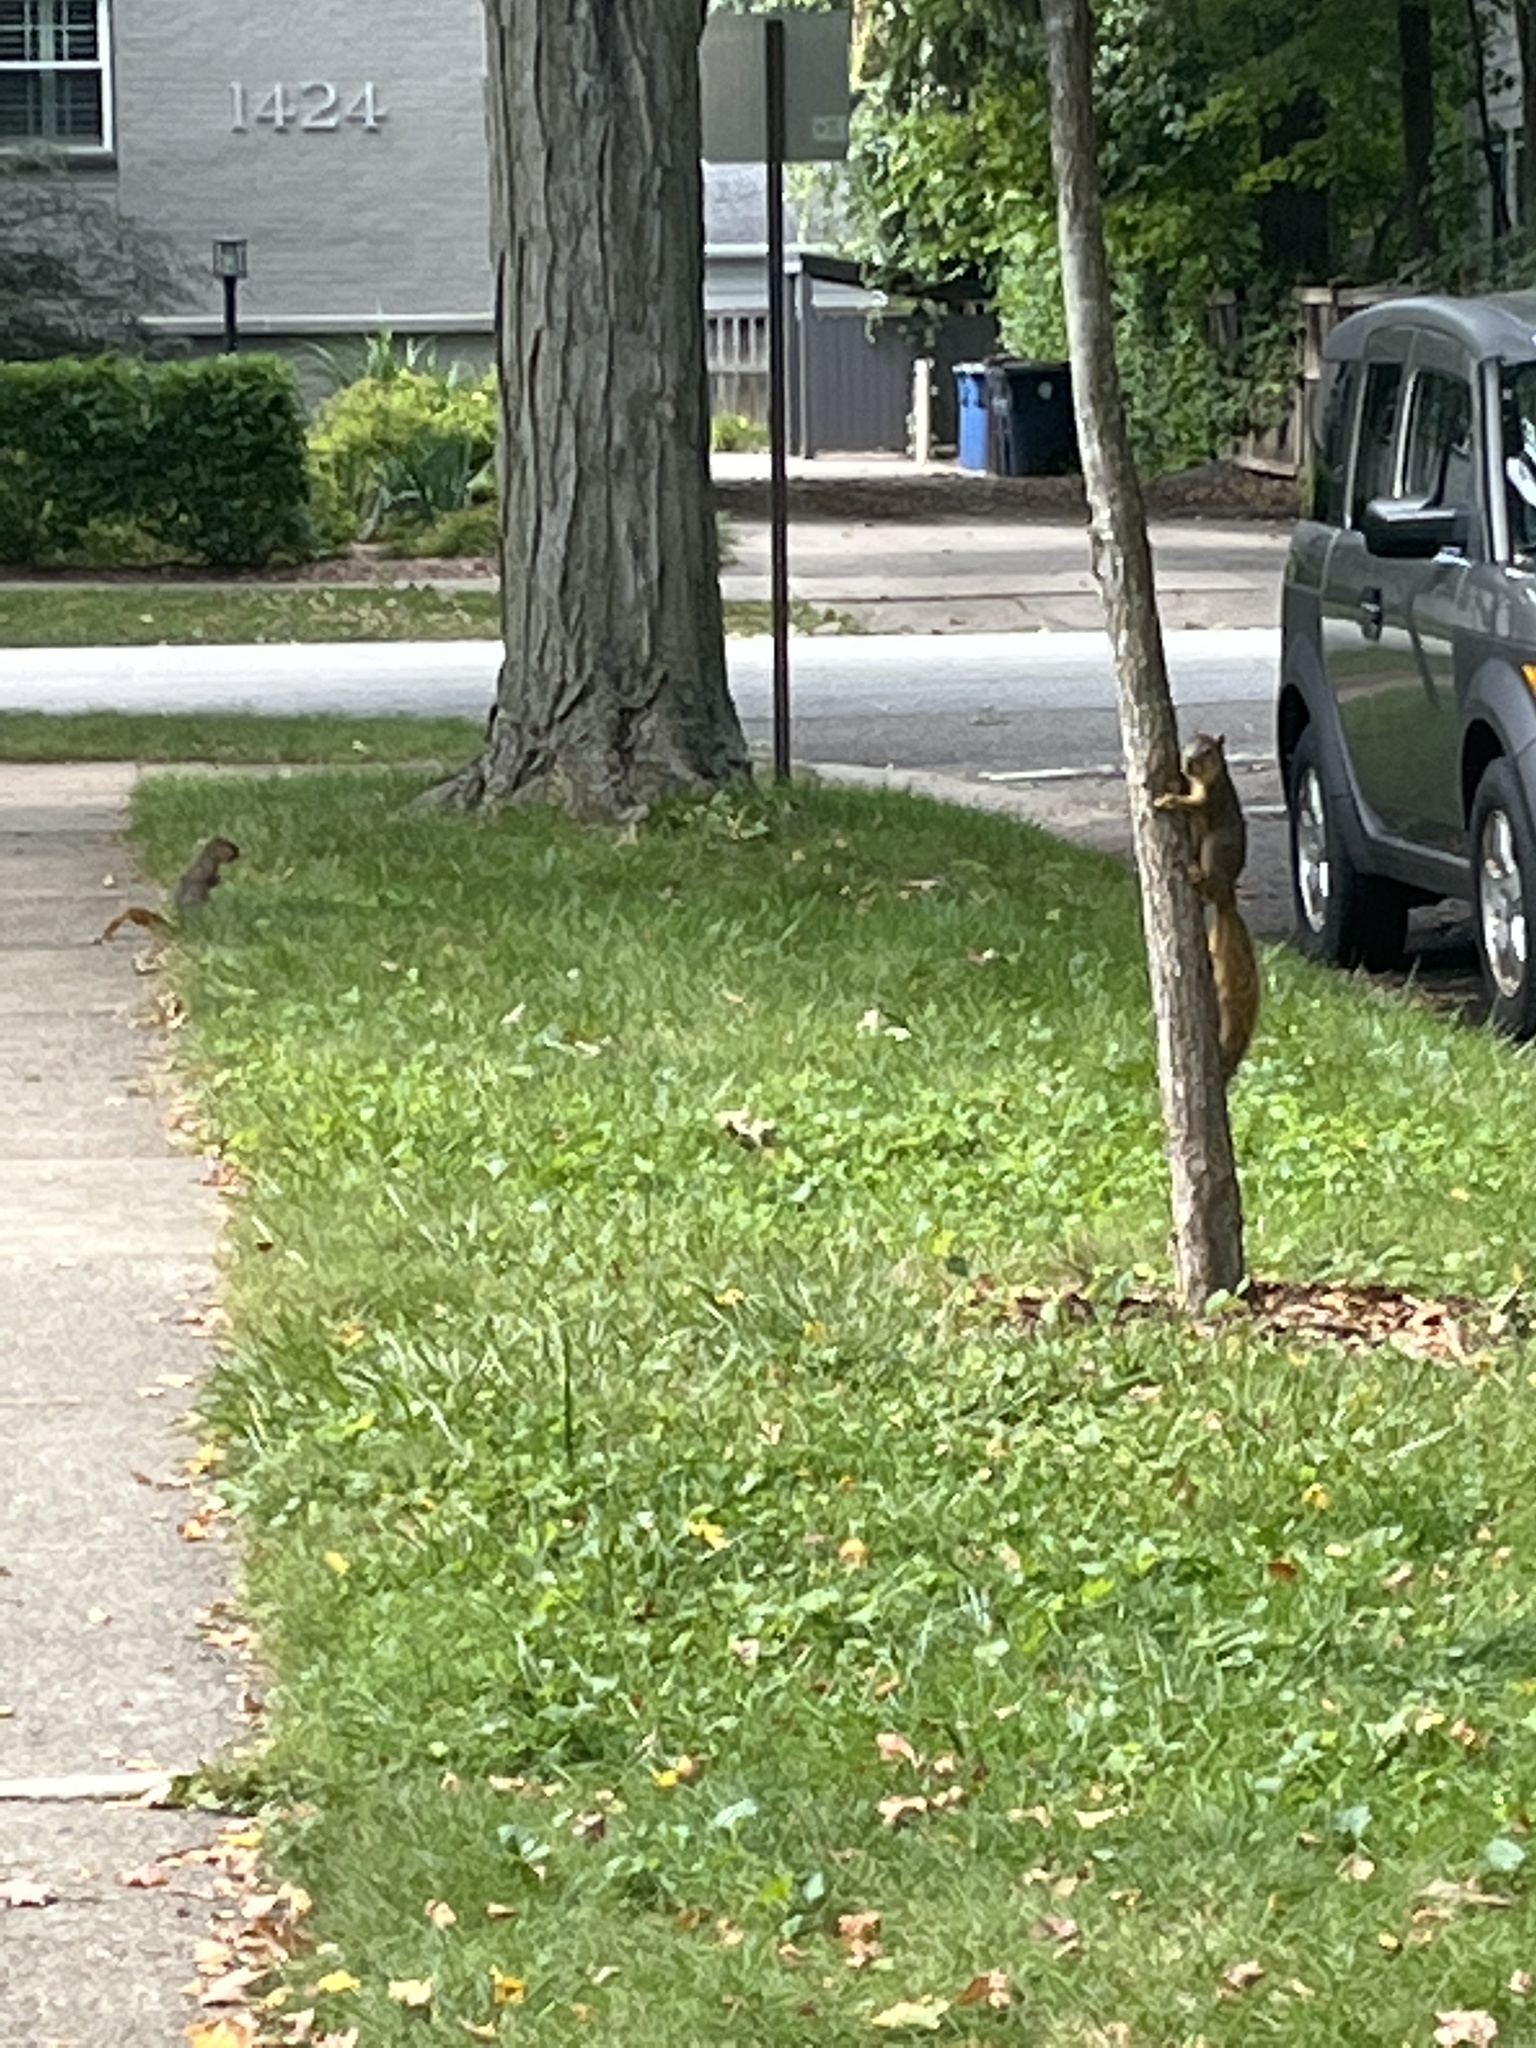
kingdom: Animalia
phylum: Chordata
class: Mammalia
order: Rodentia
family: Sciuridae
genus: Sciurus
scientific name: Sciurus niger
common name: Fox squirrel
